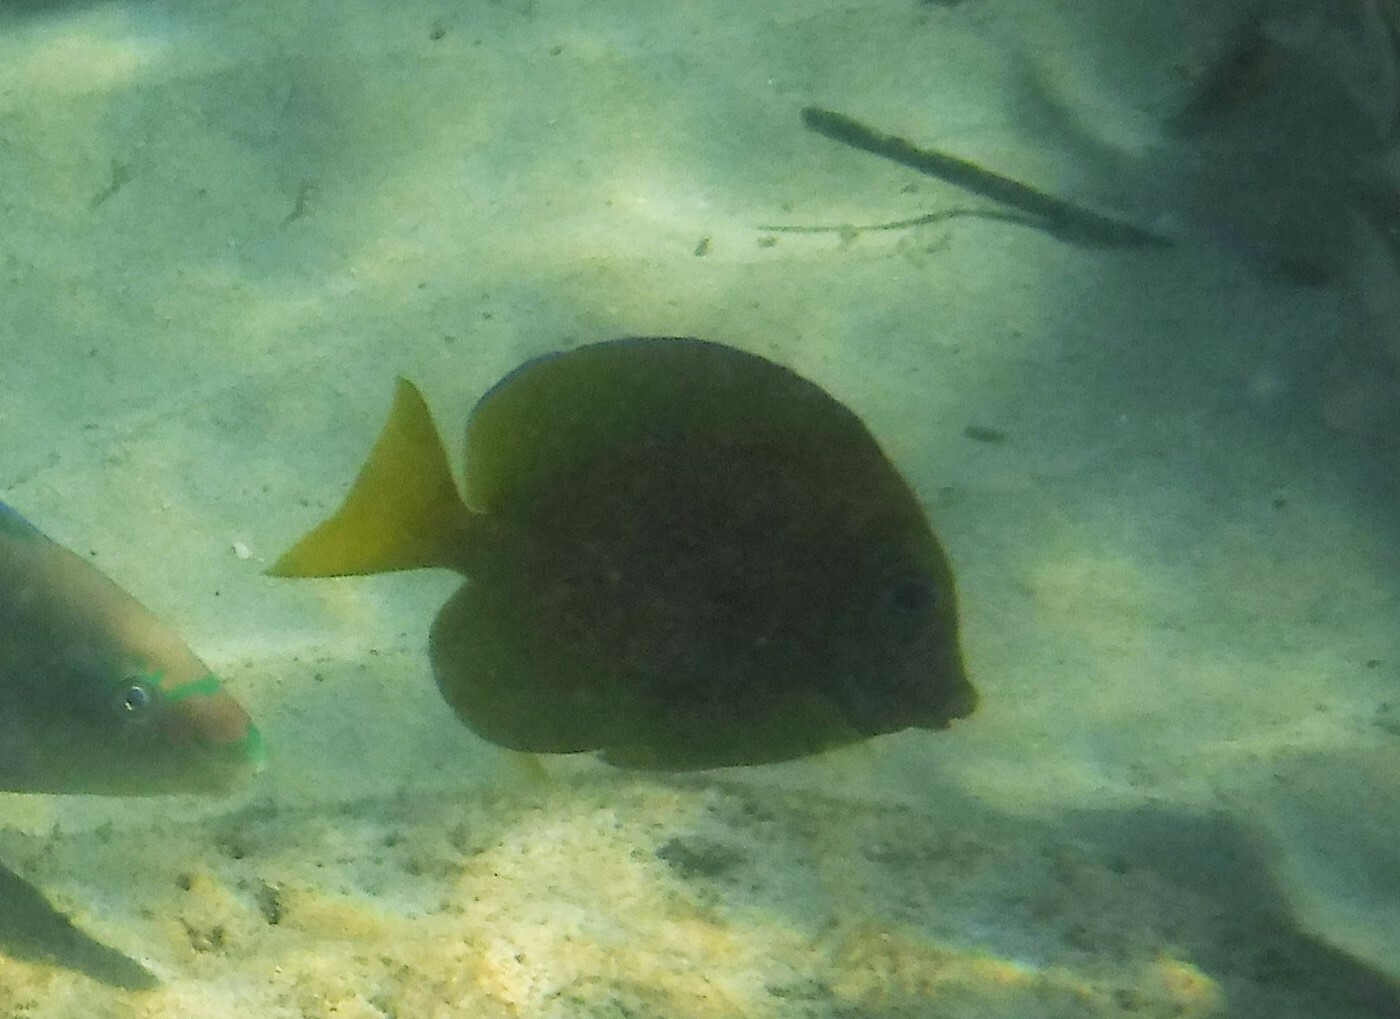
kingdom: Animalia
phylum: Chordata
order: Perciformes
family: Acanthuridae
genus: Acanthurus
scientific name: Acanthurus coeruleus
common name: Blue tang
